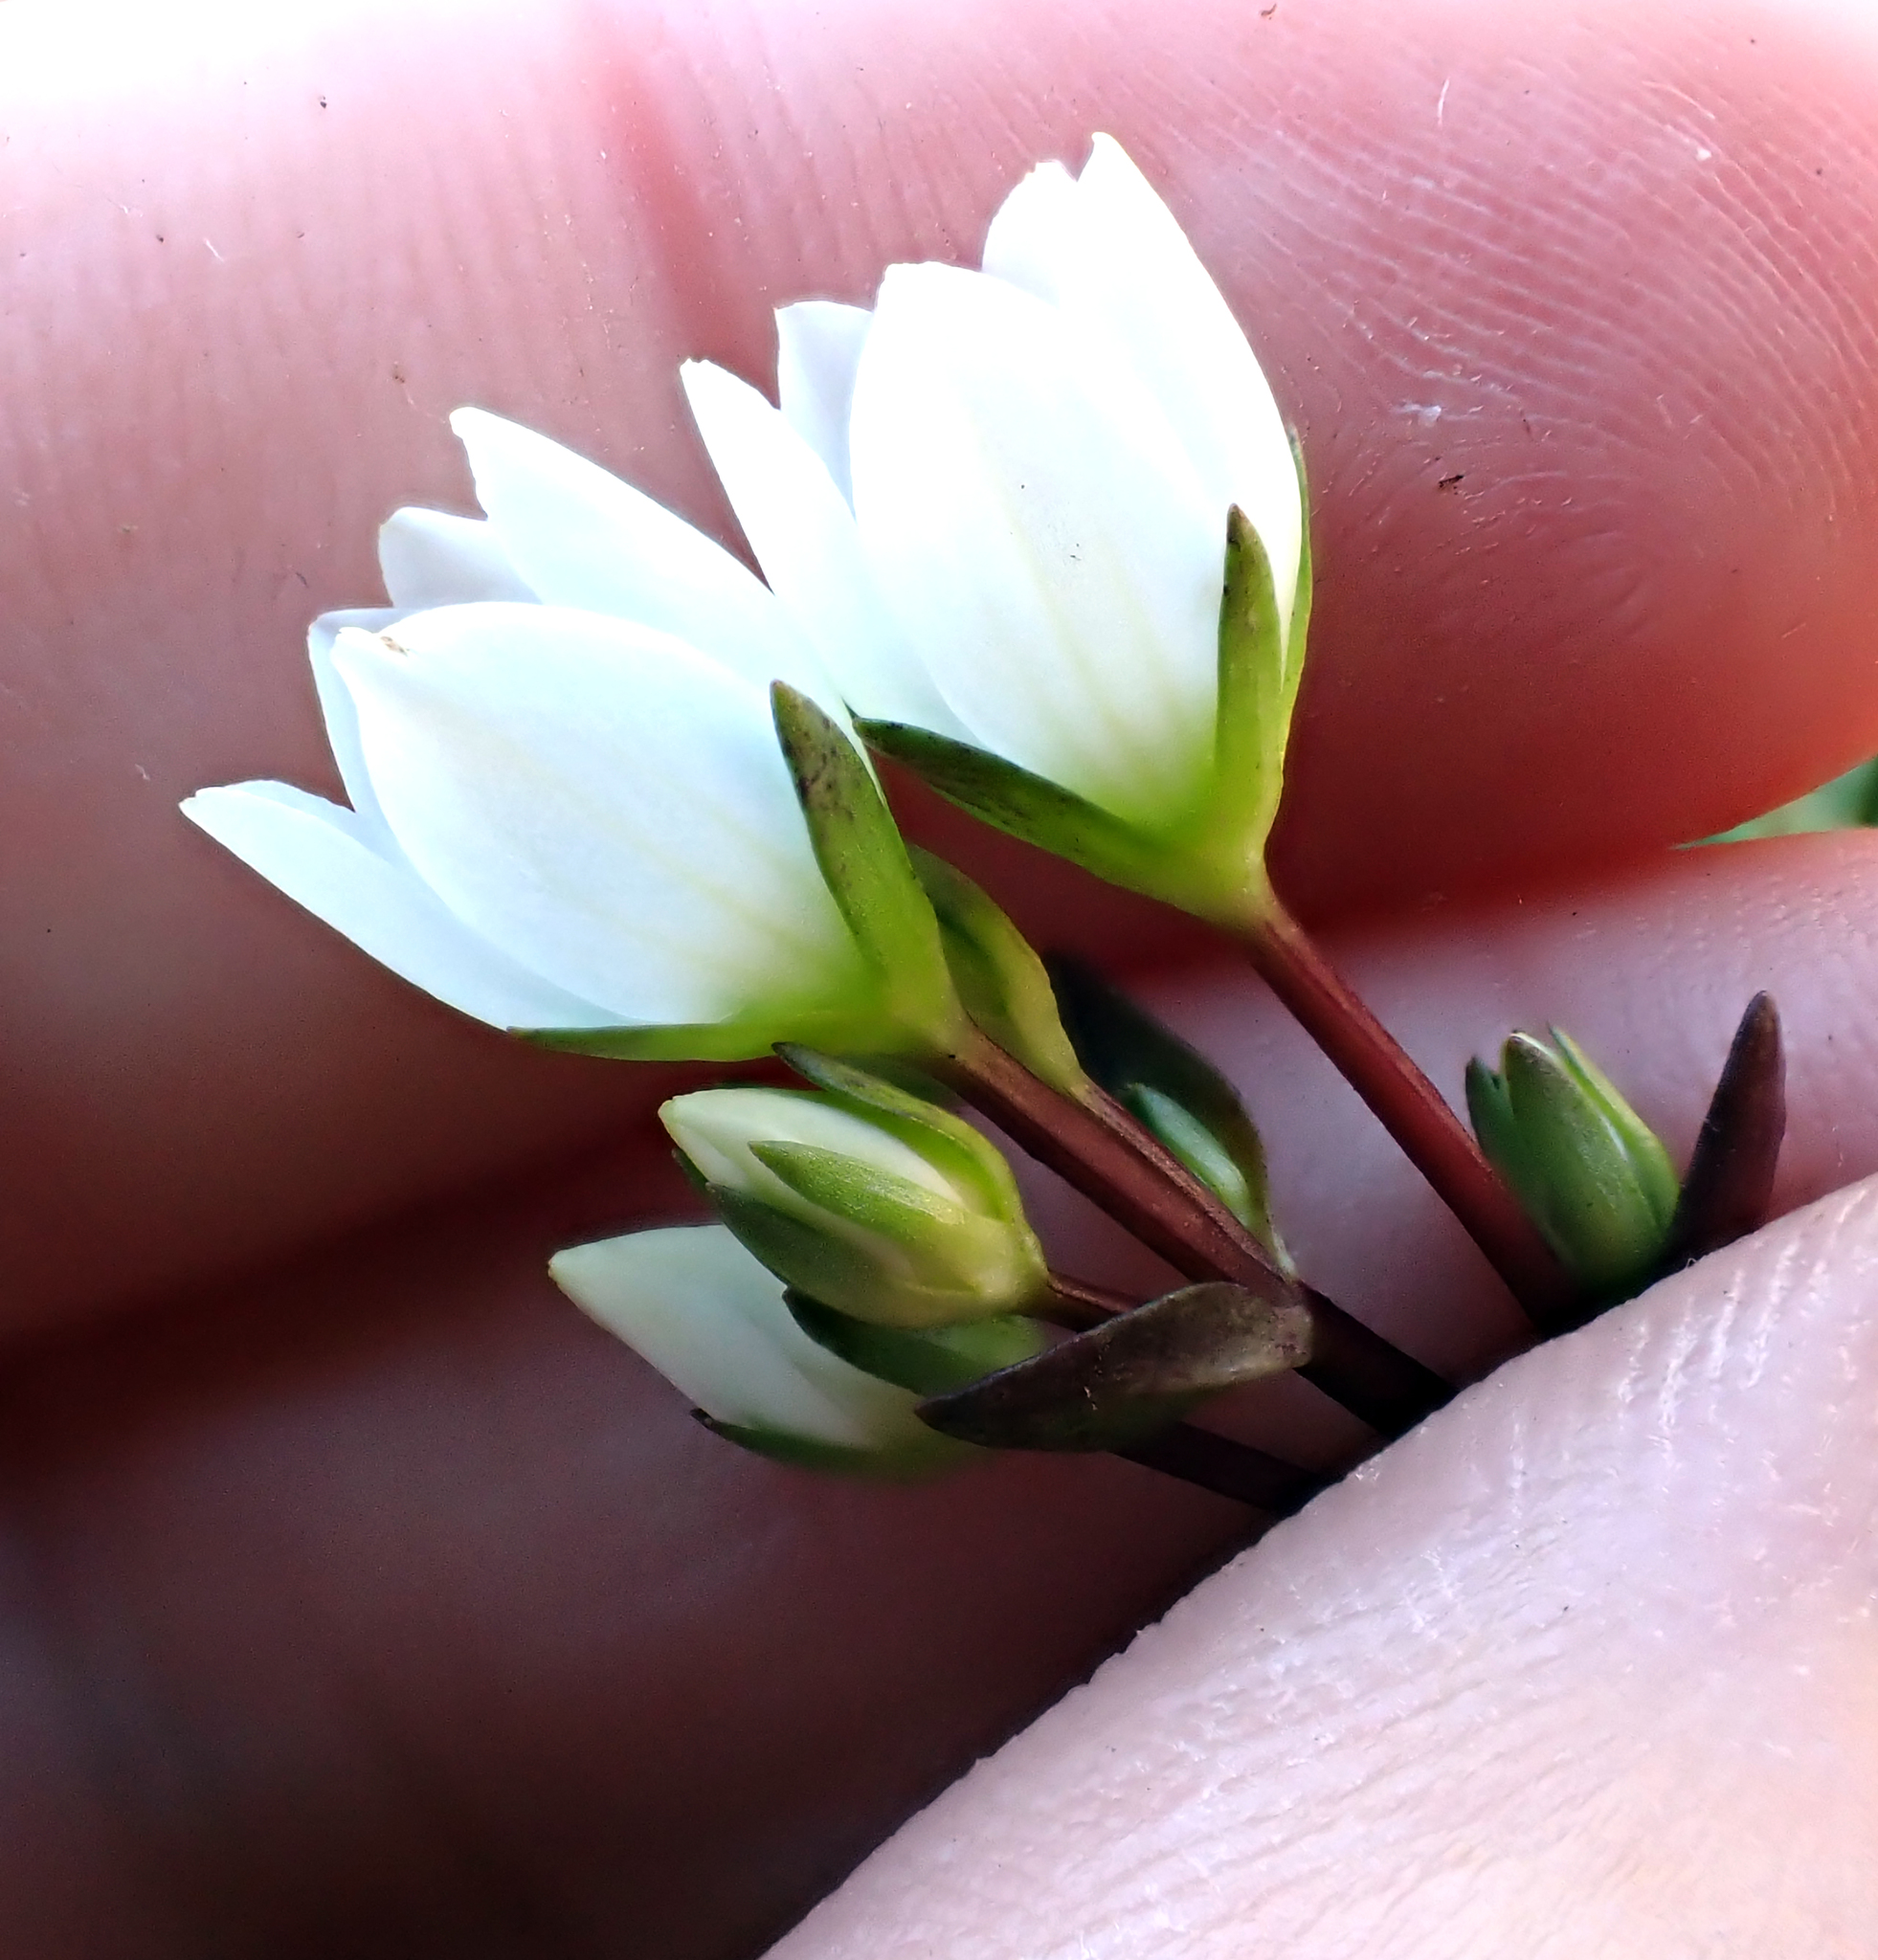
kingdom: Plantae
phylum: Tracheophyta
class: Magnoliopsida
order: Gentianales
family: Gentianaceae
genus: Gentianella
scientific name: Gentianella chathamica
